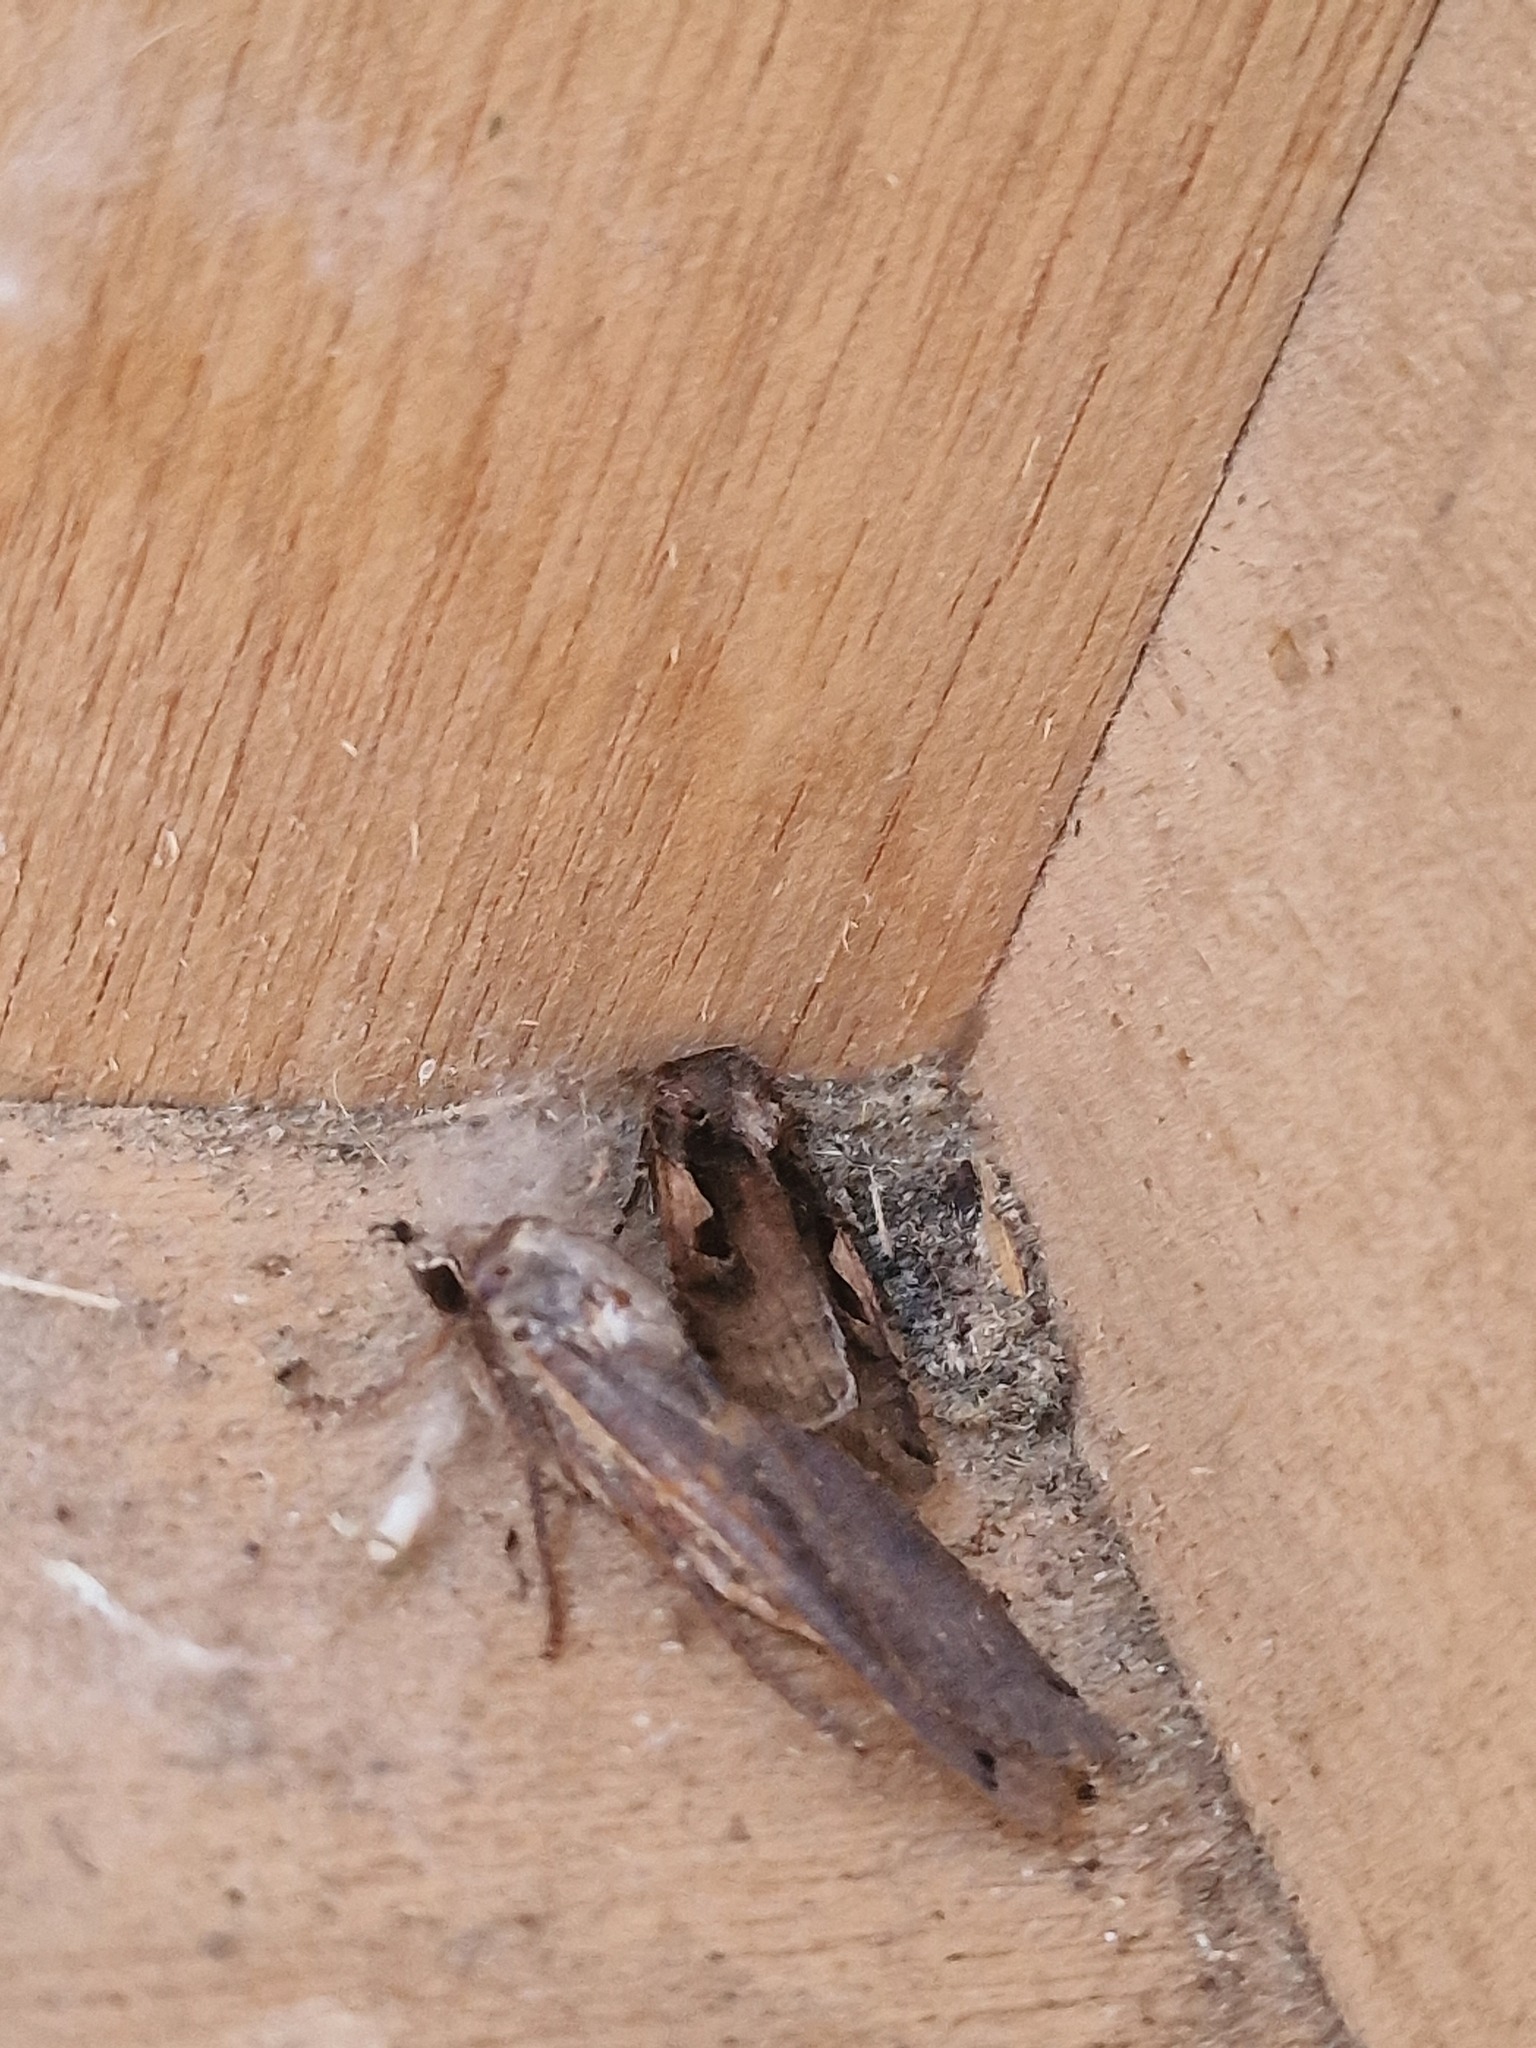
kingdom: Animalia
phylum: Arthropoda
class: Insecta
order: Lepidoptera
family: Noctuidae
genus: Xestia
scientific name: Xestia c-nigrum
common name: Setaceous hebrew character
